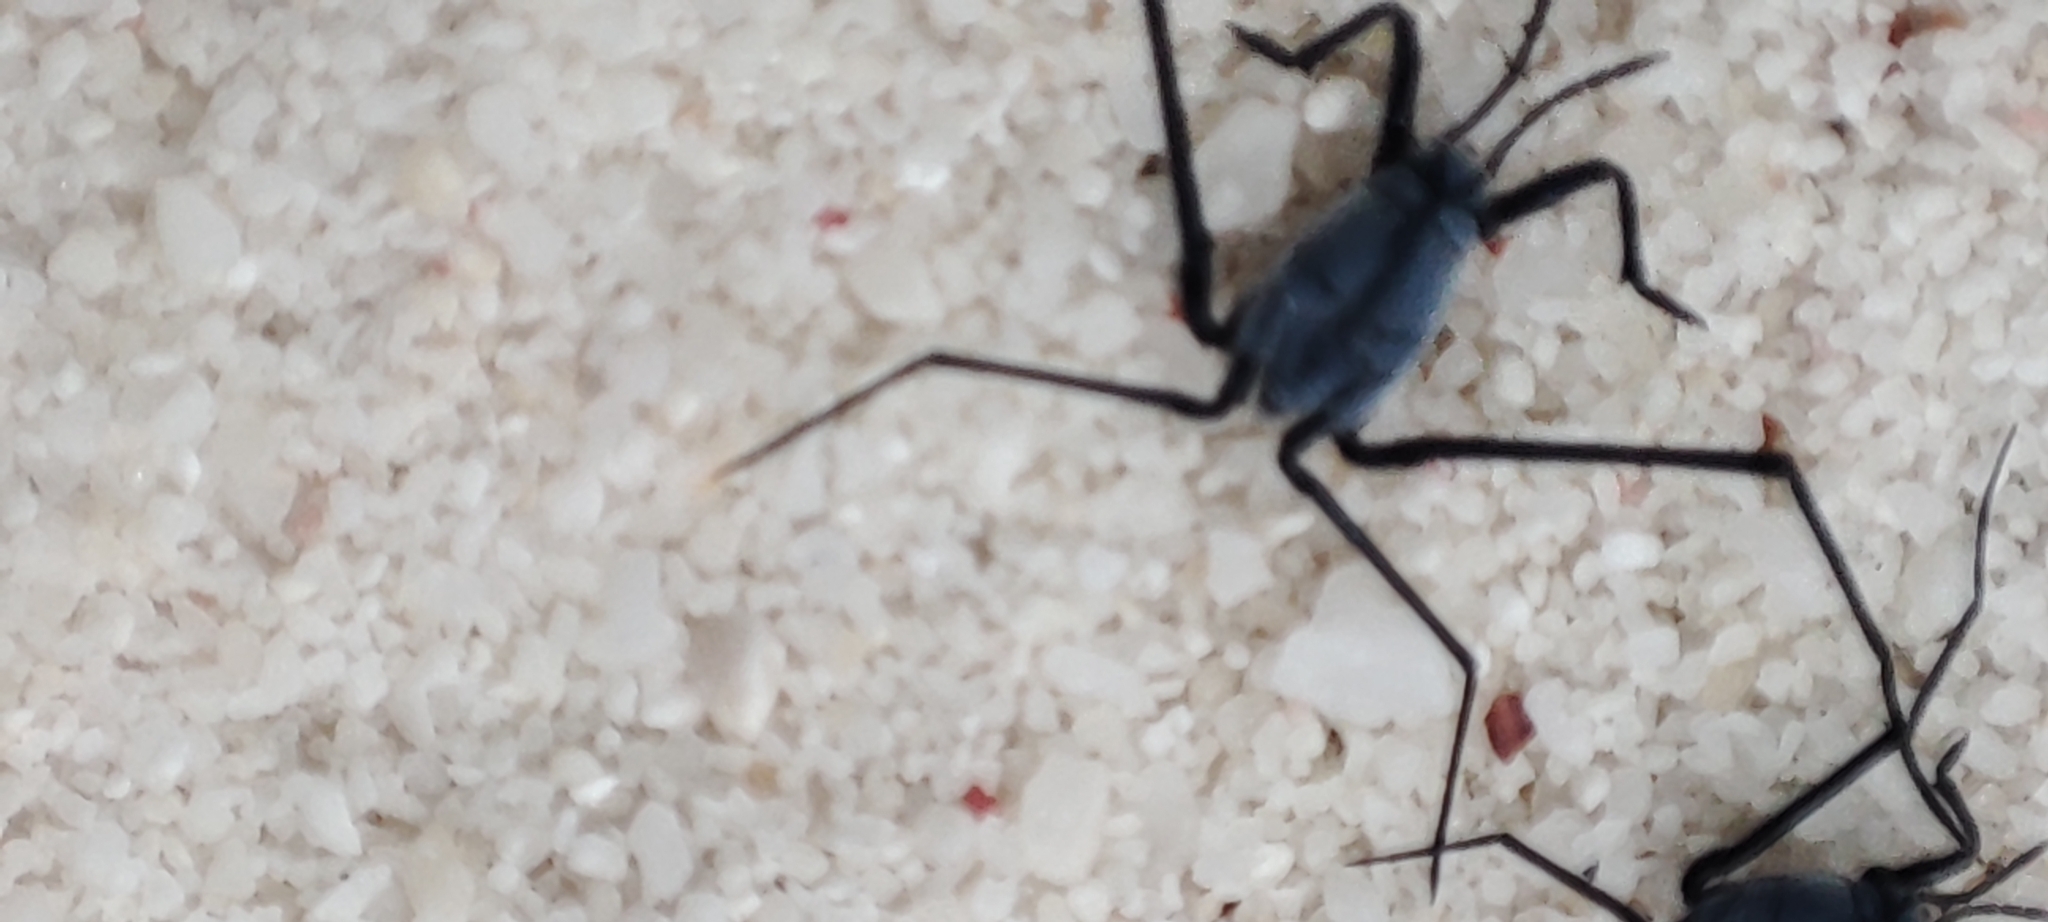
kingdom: Animalia
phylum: Arthropoda
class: Insecta
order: Hemiptera
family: Gerridae
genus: Halobates
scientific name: Halobates
